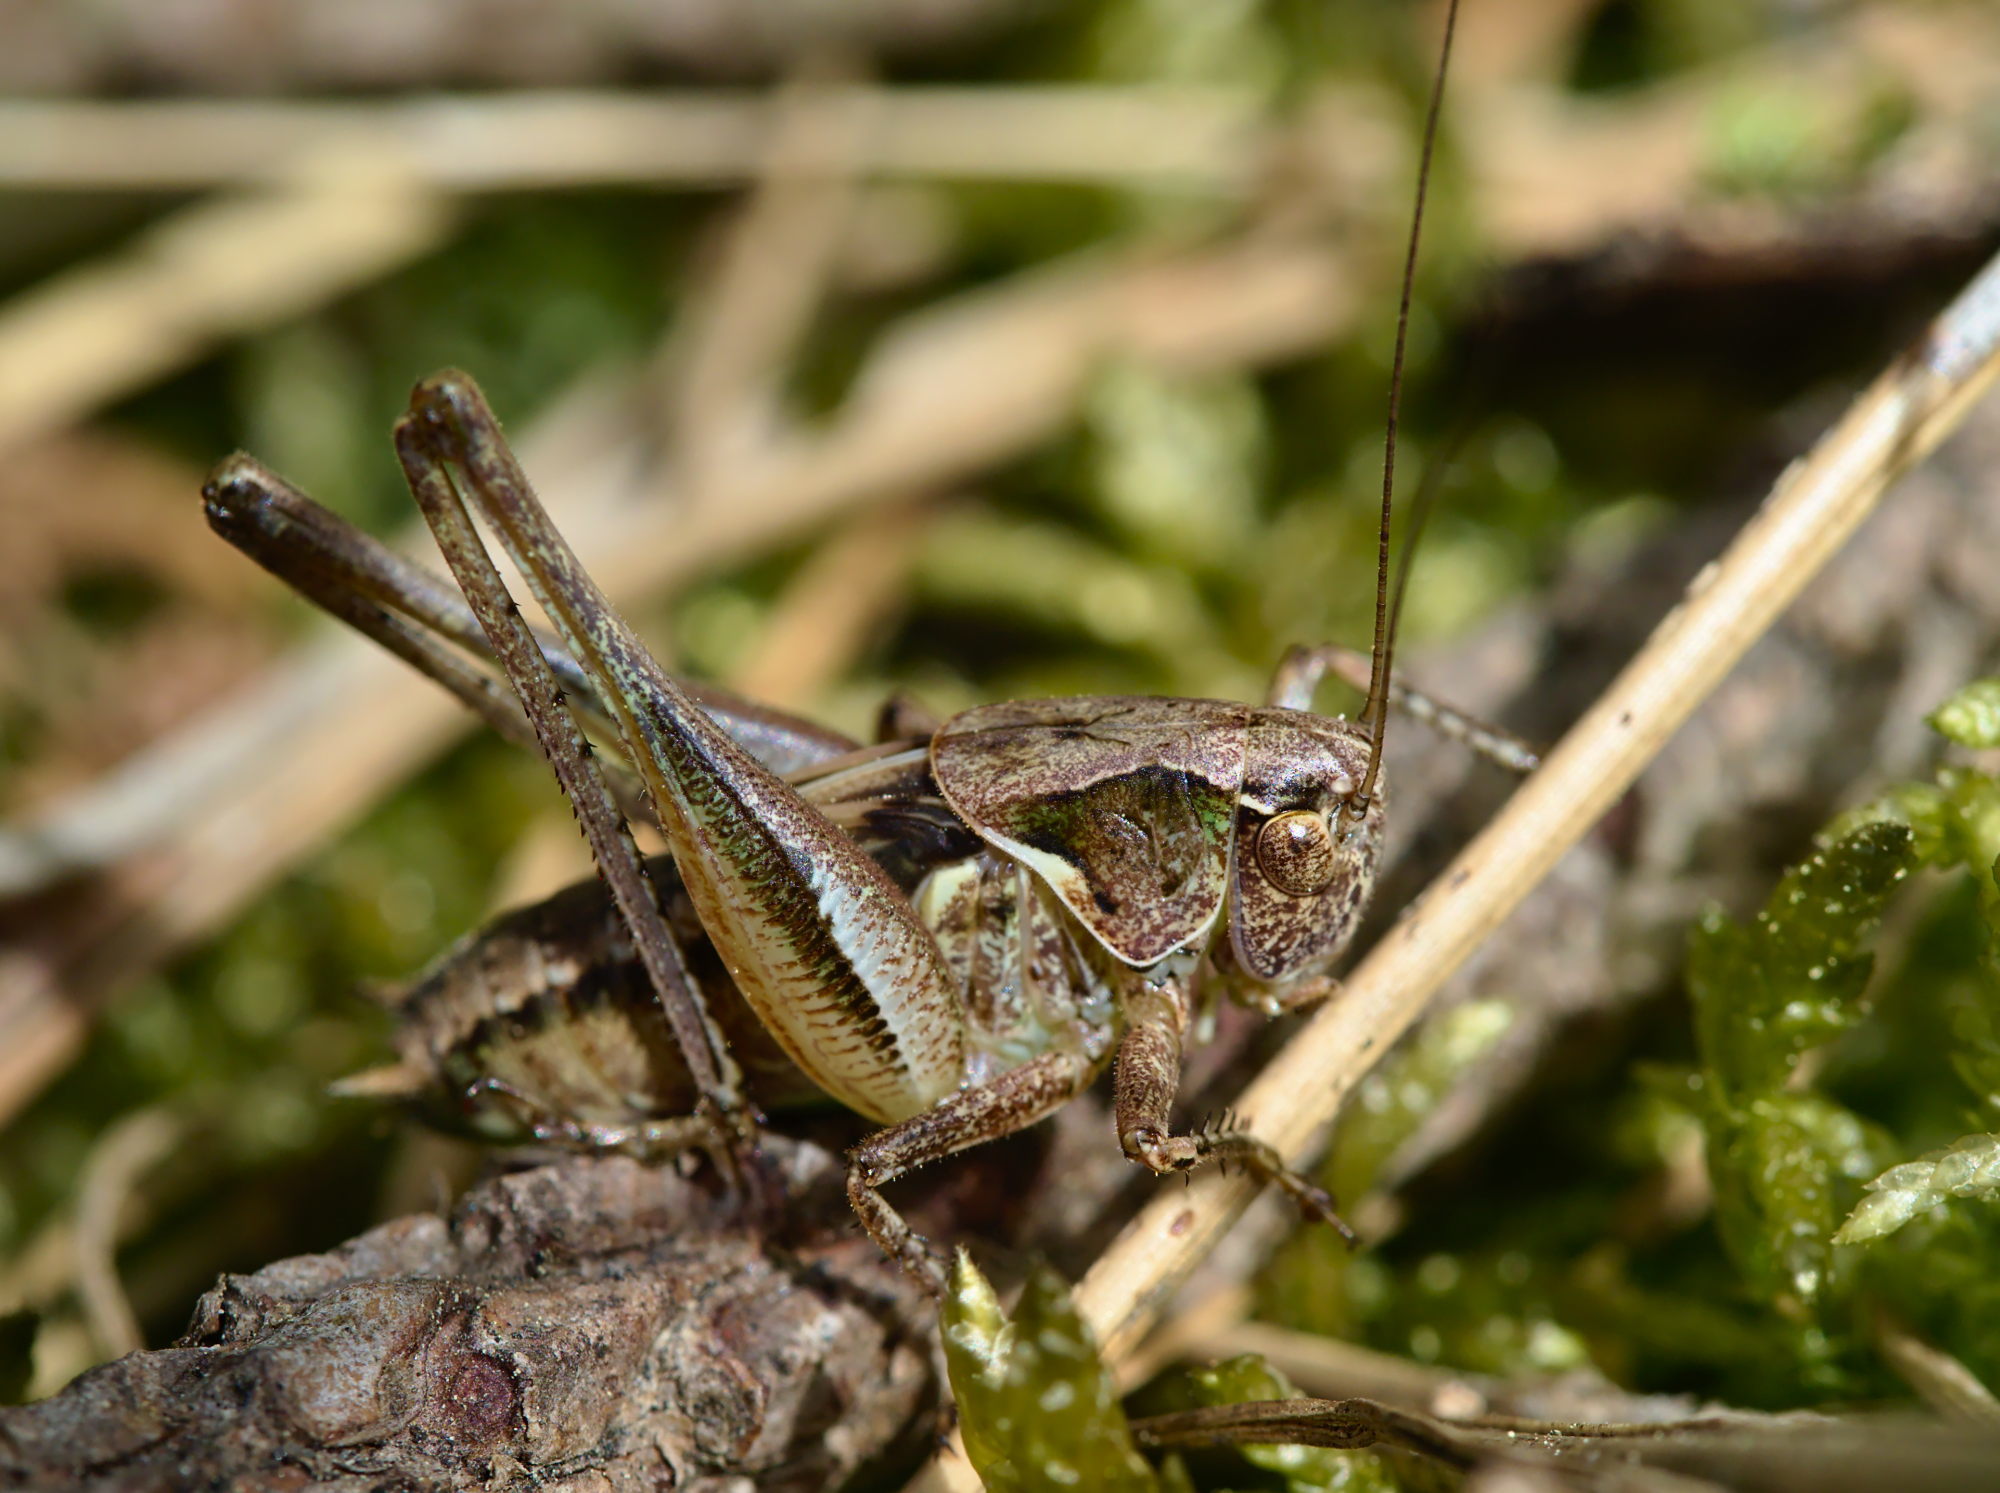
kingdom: Animalia
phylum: Arthropoda
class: Insecta
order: Orthoptera
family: Tettigoniidae
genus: Platycleis
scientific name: Platycleis albopunctata
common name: Grey bush-cricket
